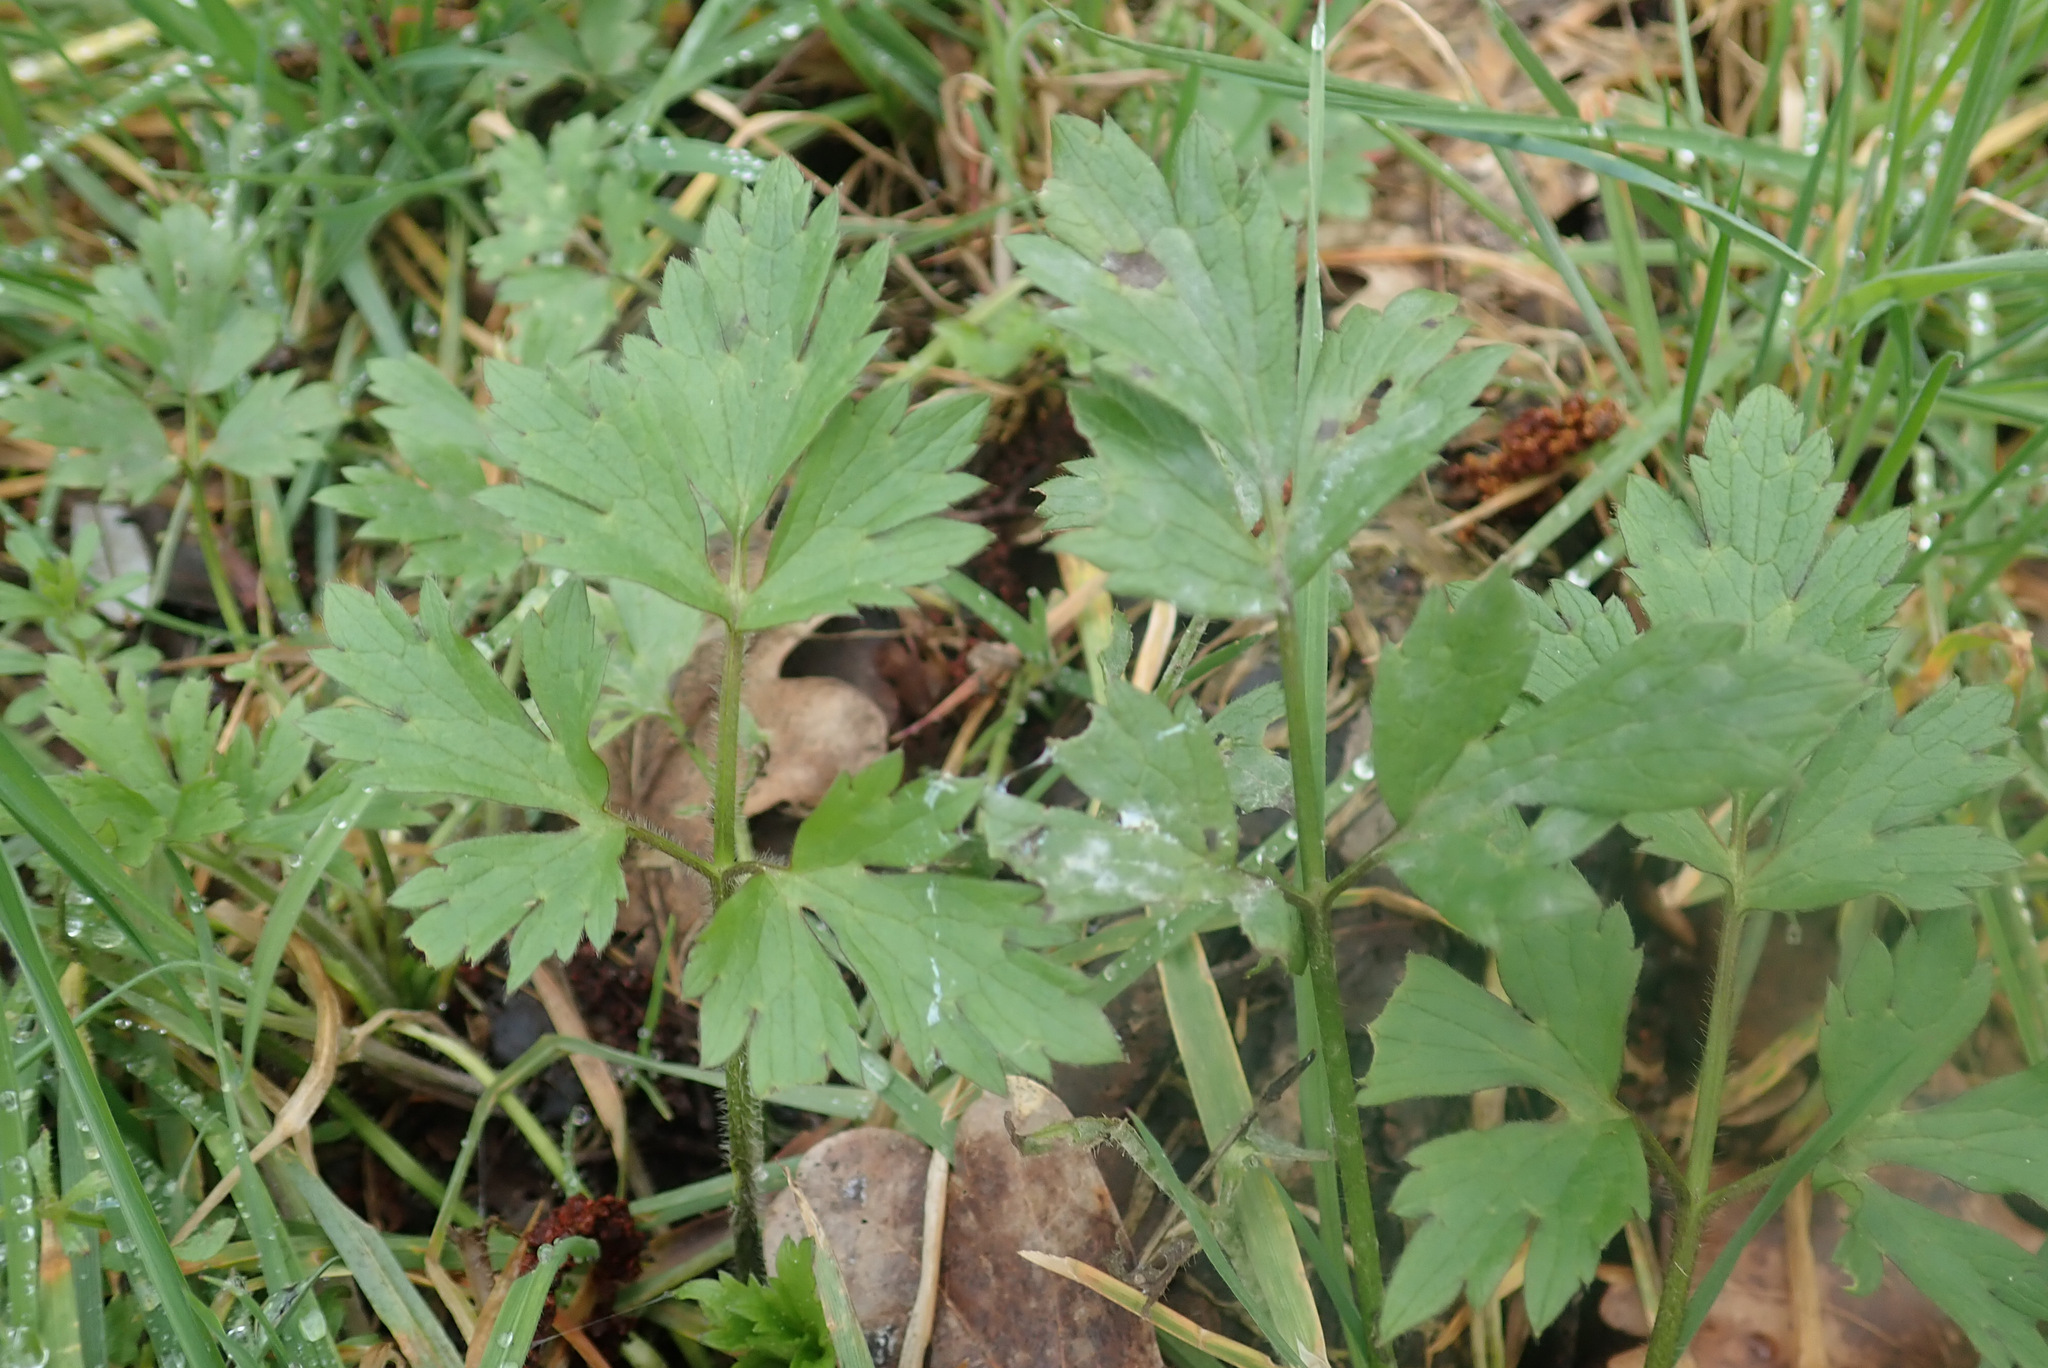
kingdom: Plantae
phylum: Tracheophyta
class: Magnoliopsida
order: Ranunculales
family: Ranunculaceae
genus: Ranunculus
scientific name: Ranunculus repens
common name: Creeping buttercup
